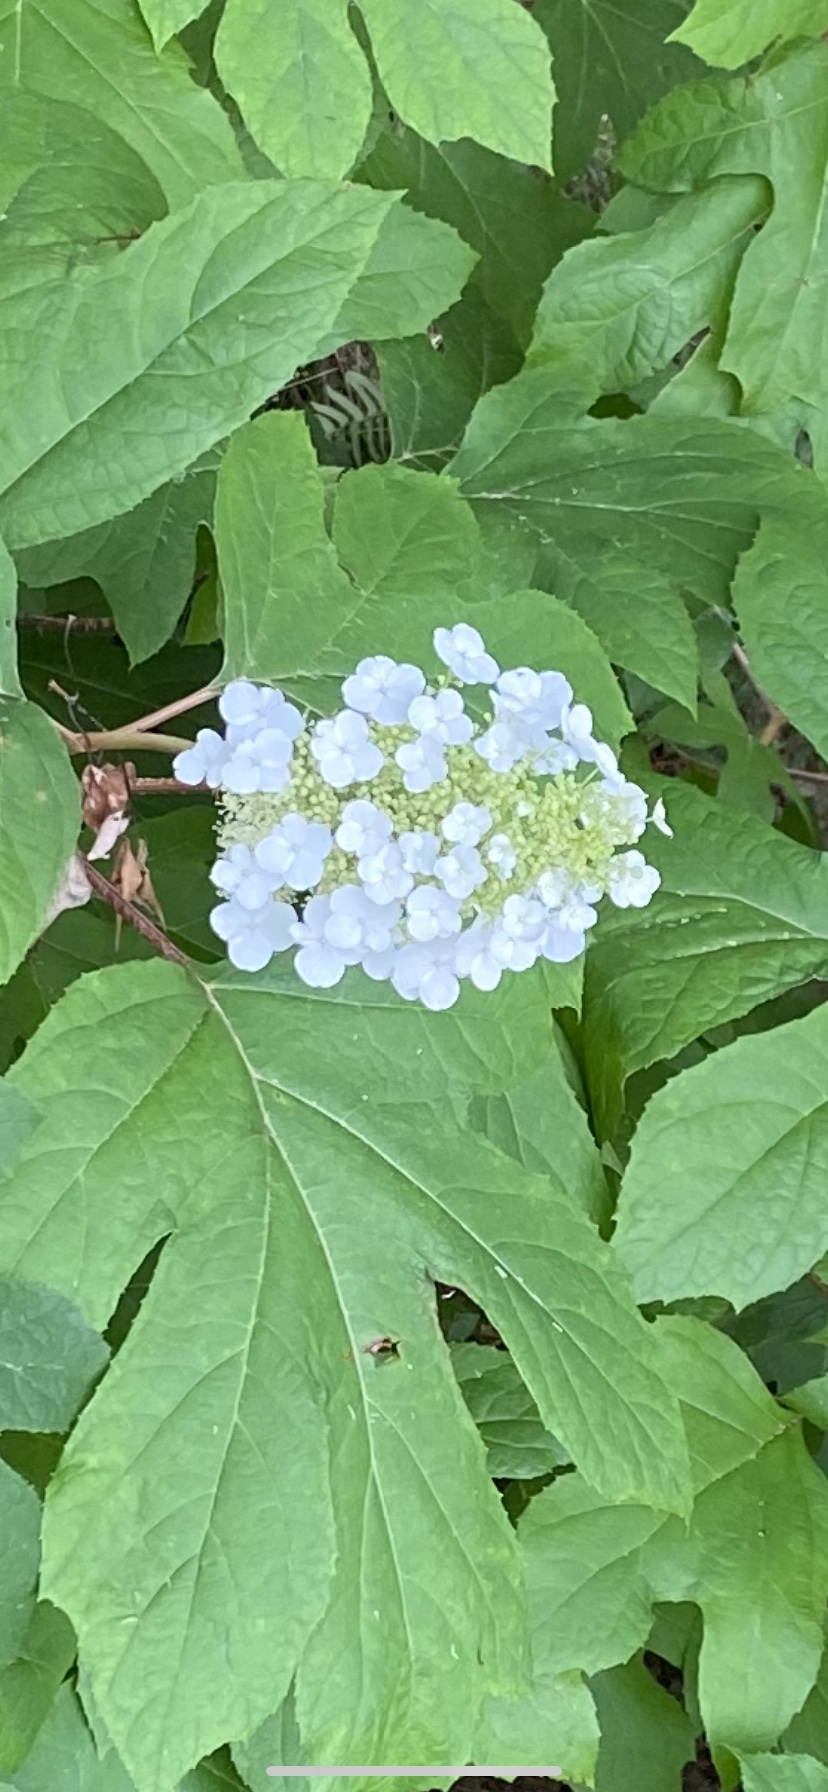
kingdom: Plantae
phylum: Tracheophyta
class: Magnoliopsida
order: Cornales
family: Hydrangeaceae
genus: Hydrangea
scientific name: Hydrangea quercifolia
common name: Oak-leaf hydrangea
